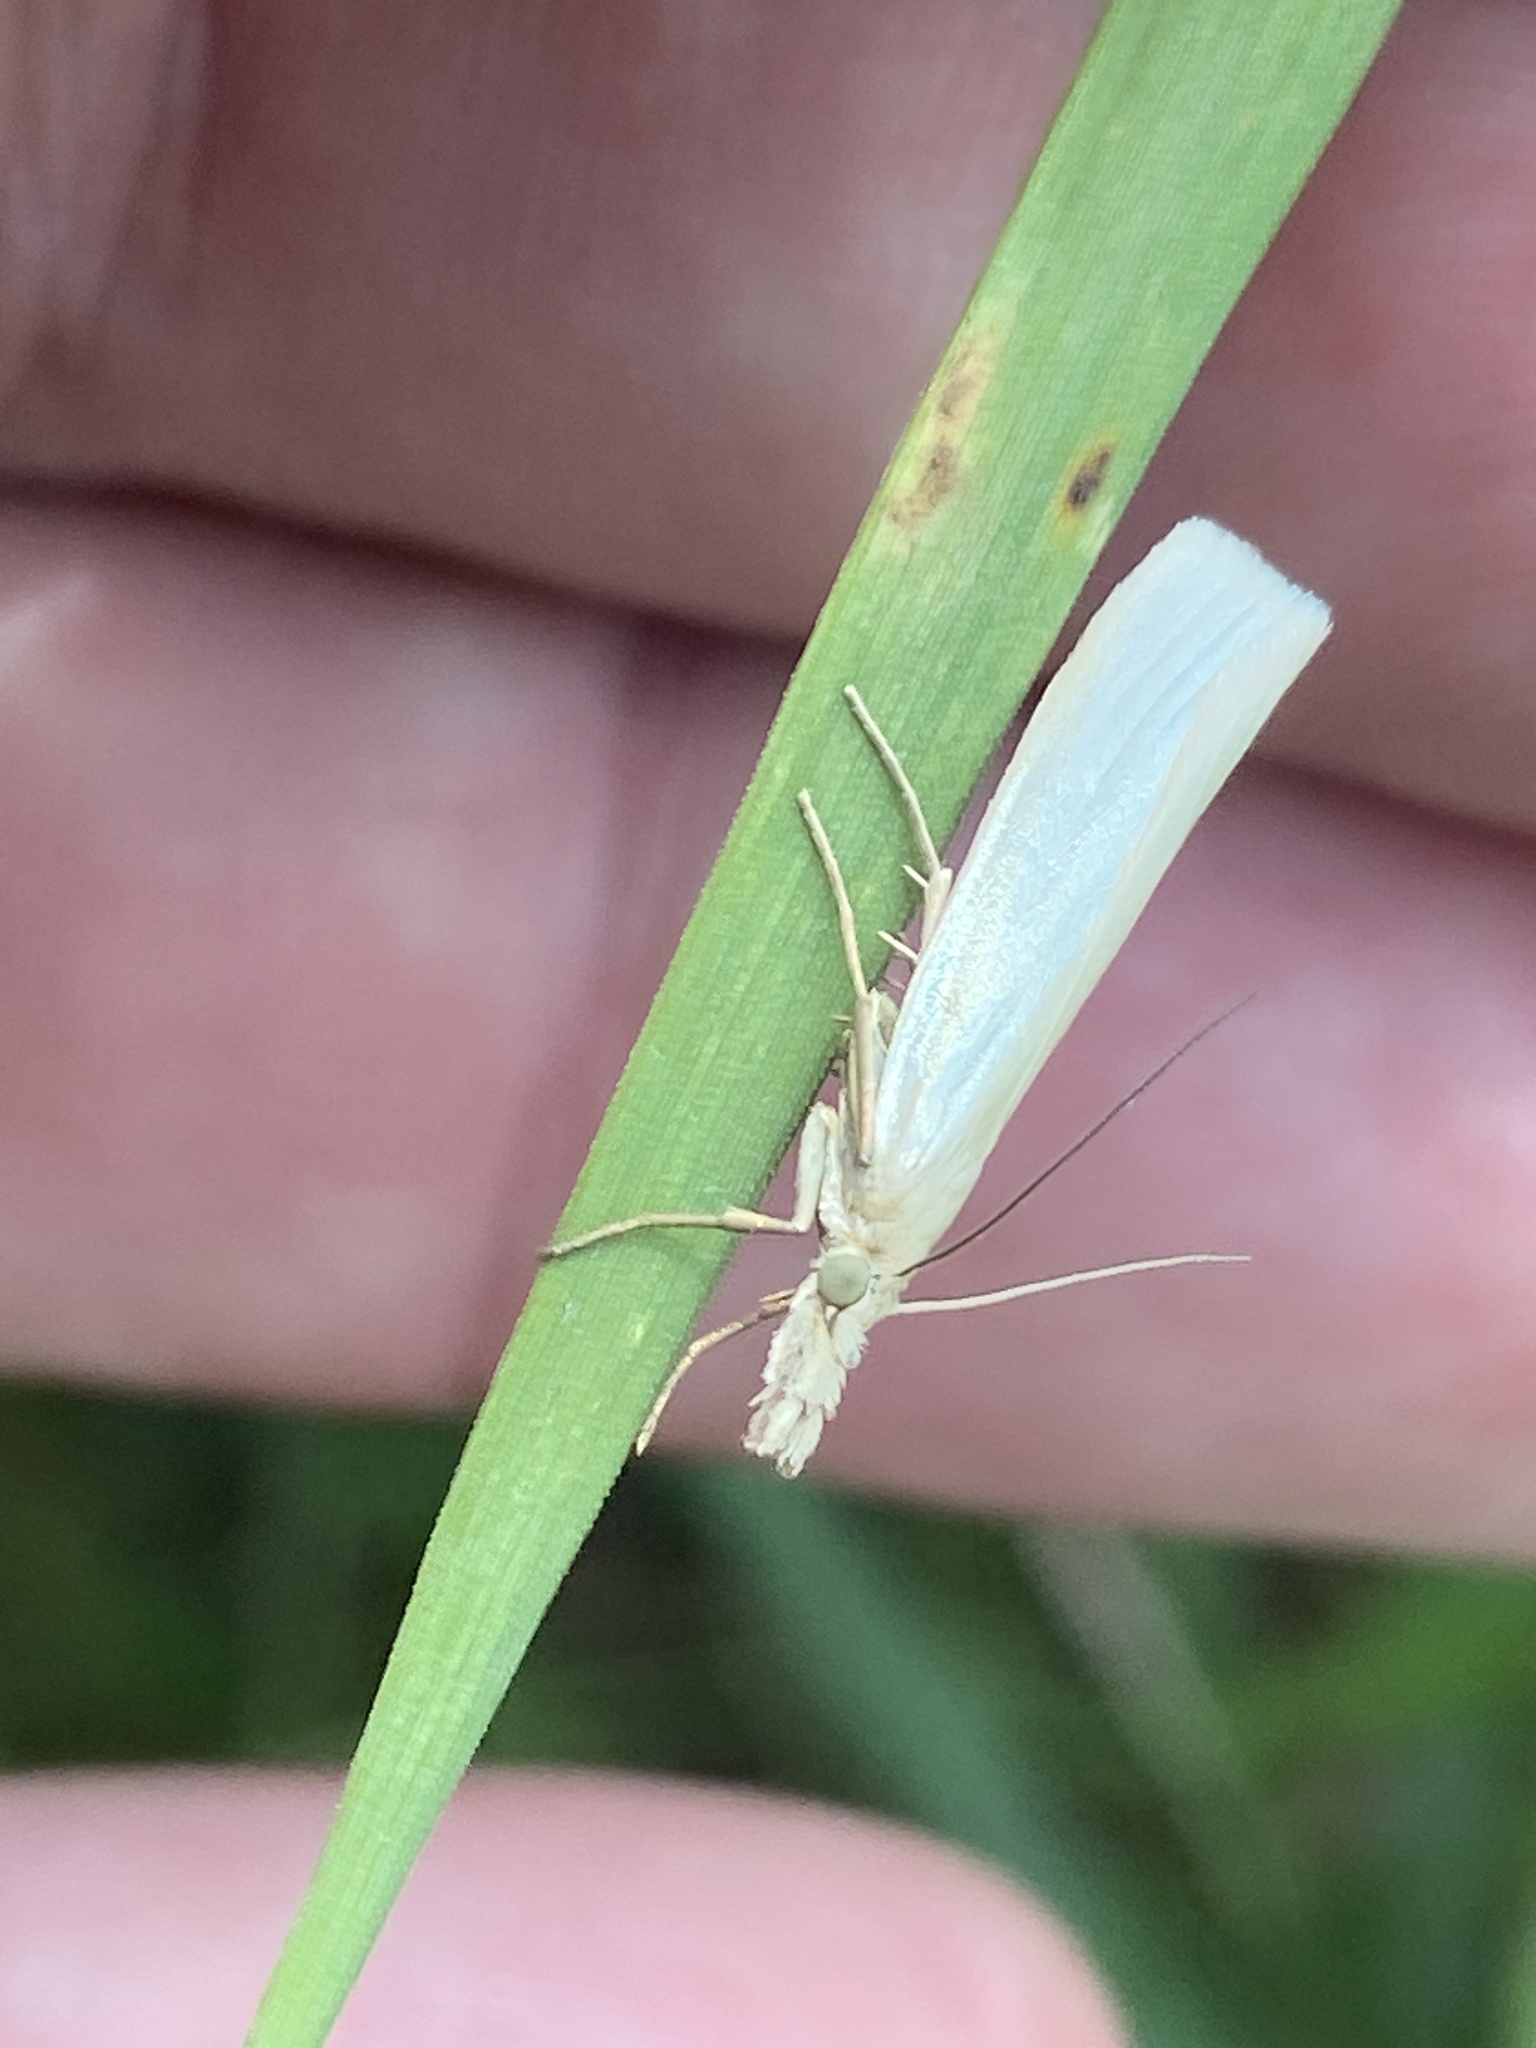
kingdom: Animalia
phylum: Arthropoda
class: Insecta
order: Lepidoptera
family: Crambidae
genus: Crambus
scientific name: Crambus perlellus
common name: Yellow satin veneer
